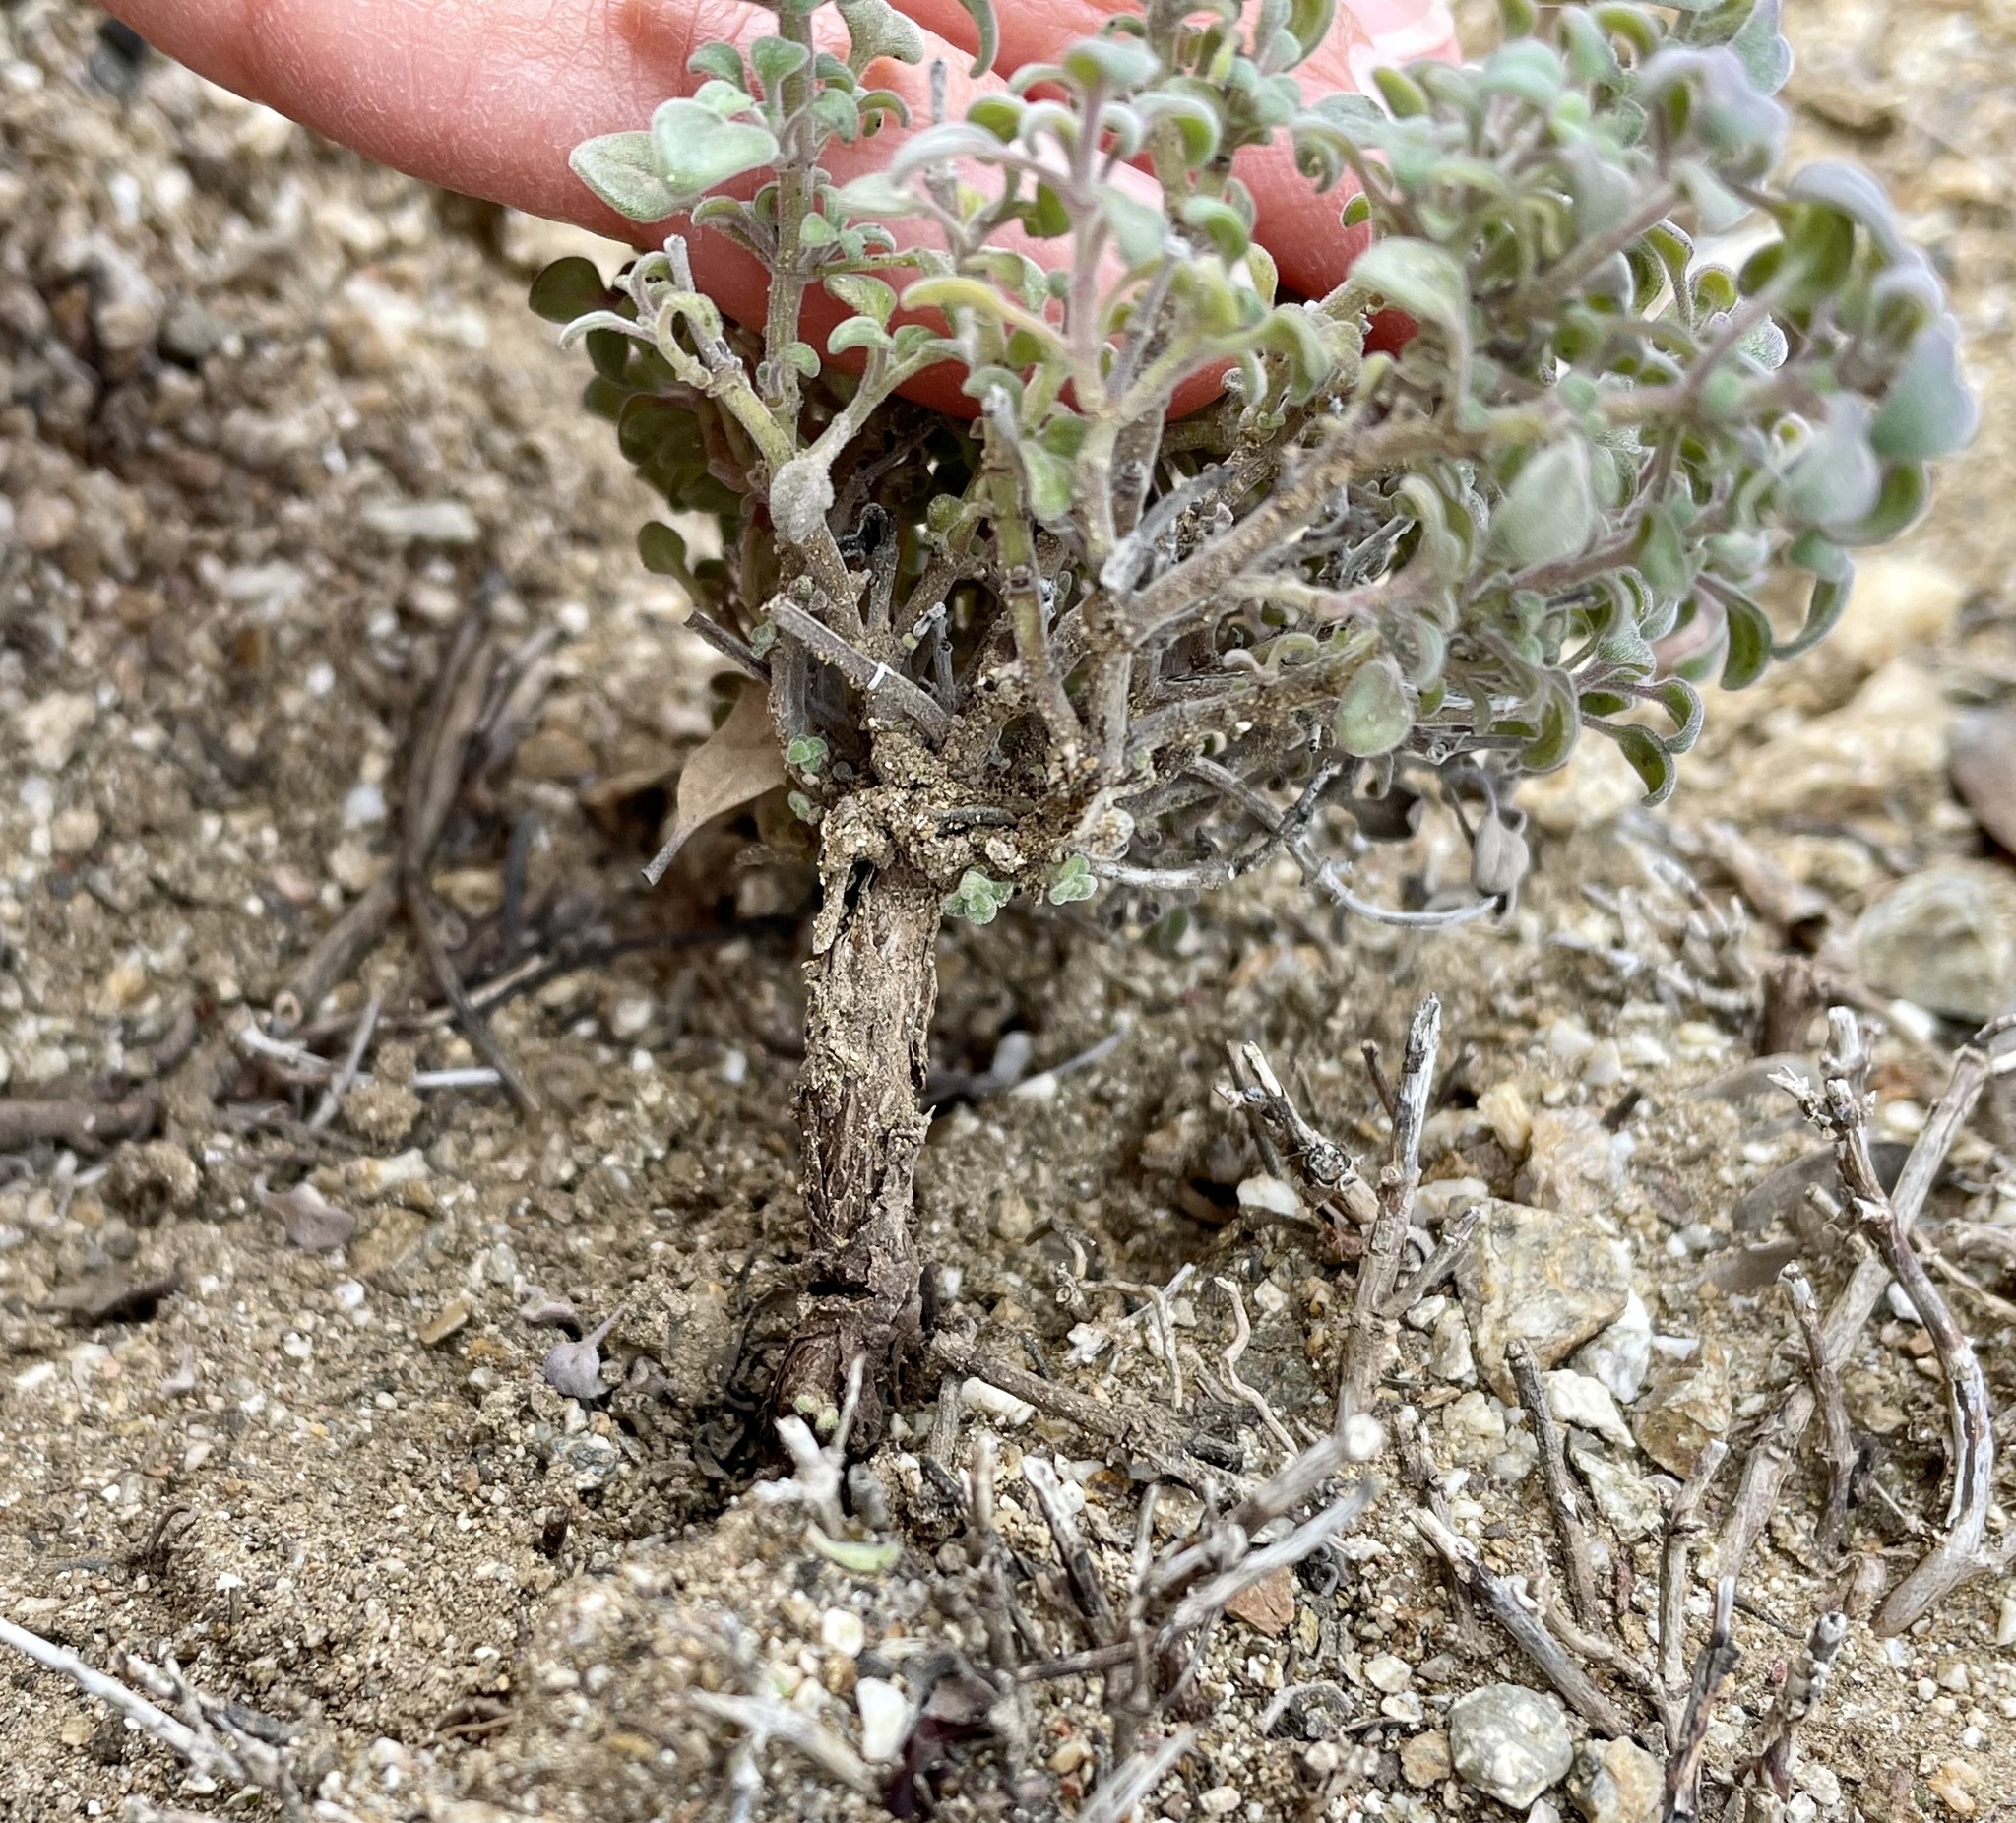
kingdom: Plantae
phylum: Tracheophyta
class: Magnoliopsida
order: Lamiales
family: Lamiaceae
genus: Monardella
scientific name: Monardella nana
